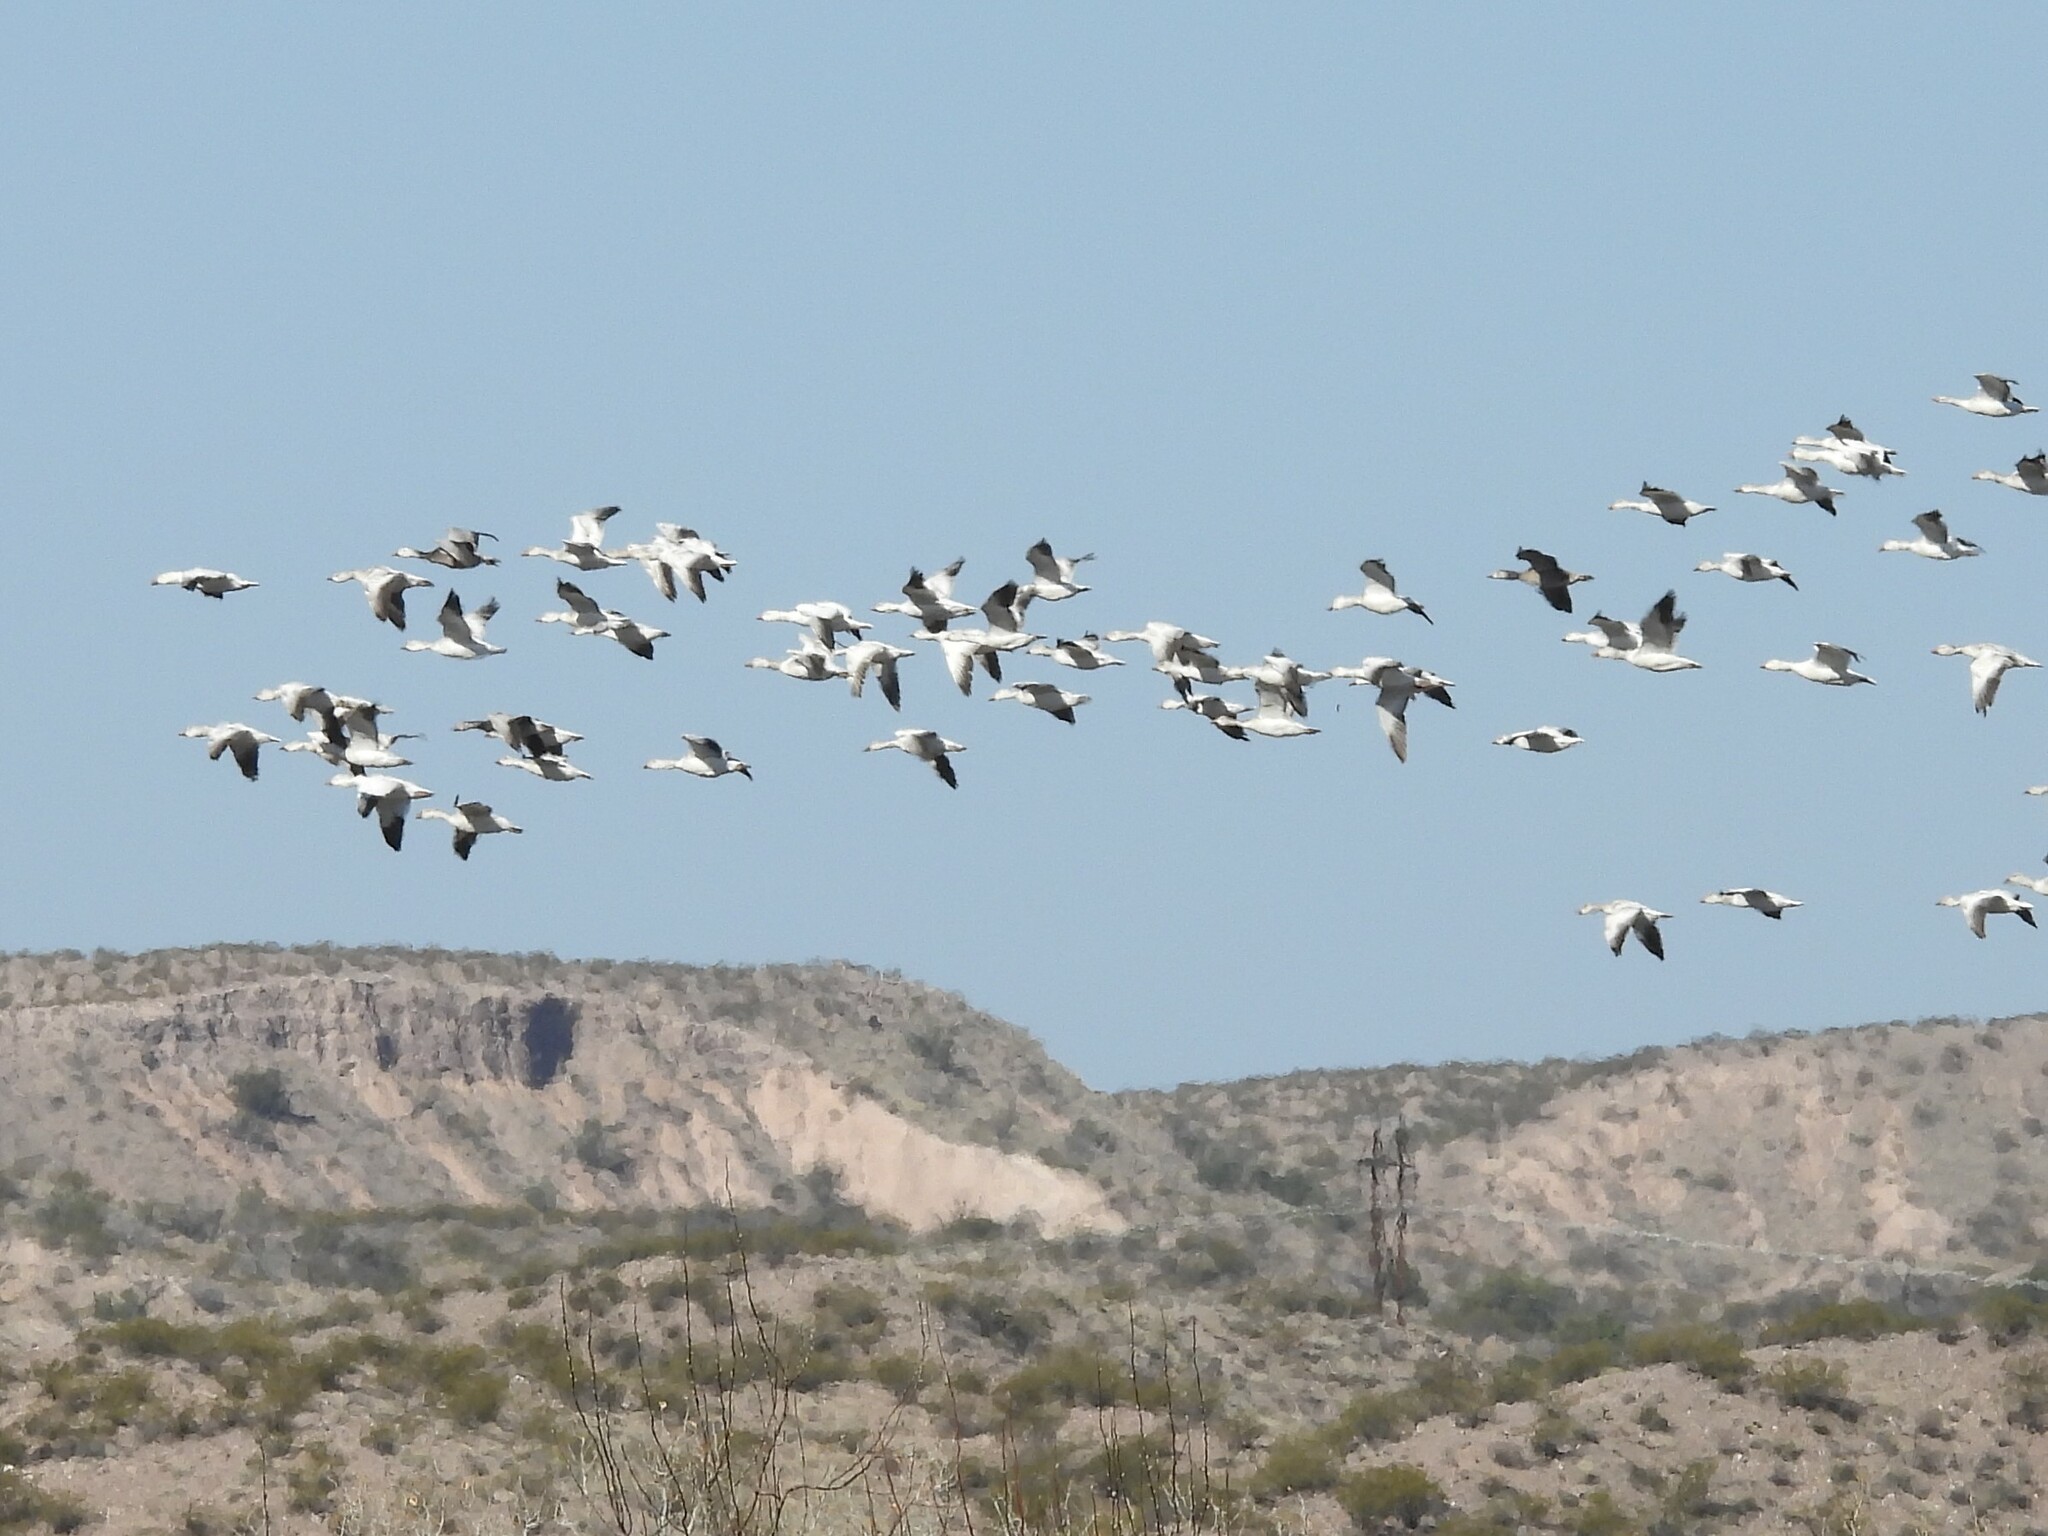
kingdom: Animalia
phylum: Chordata
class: Aves
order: Anseriformes
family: Anatidae
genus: Anser
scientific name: Anser caerulescens
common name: Snow goose
